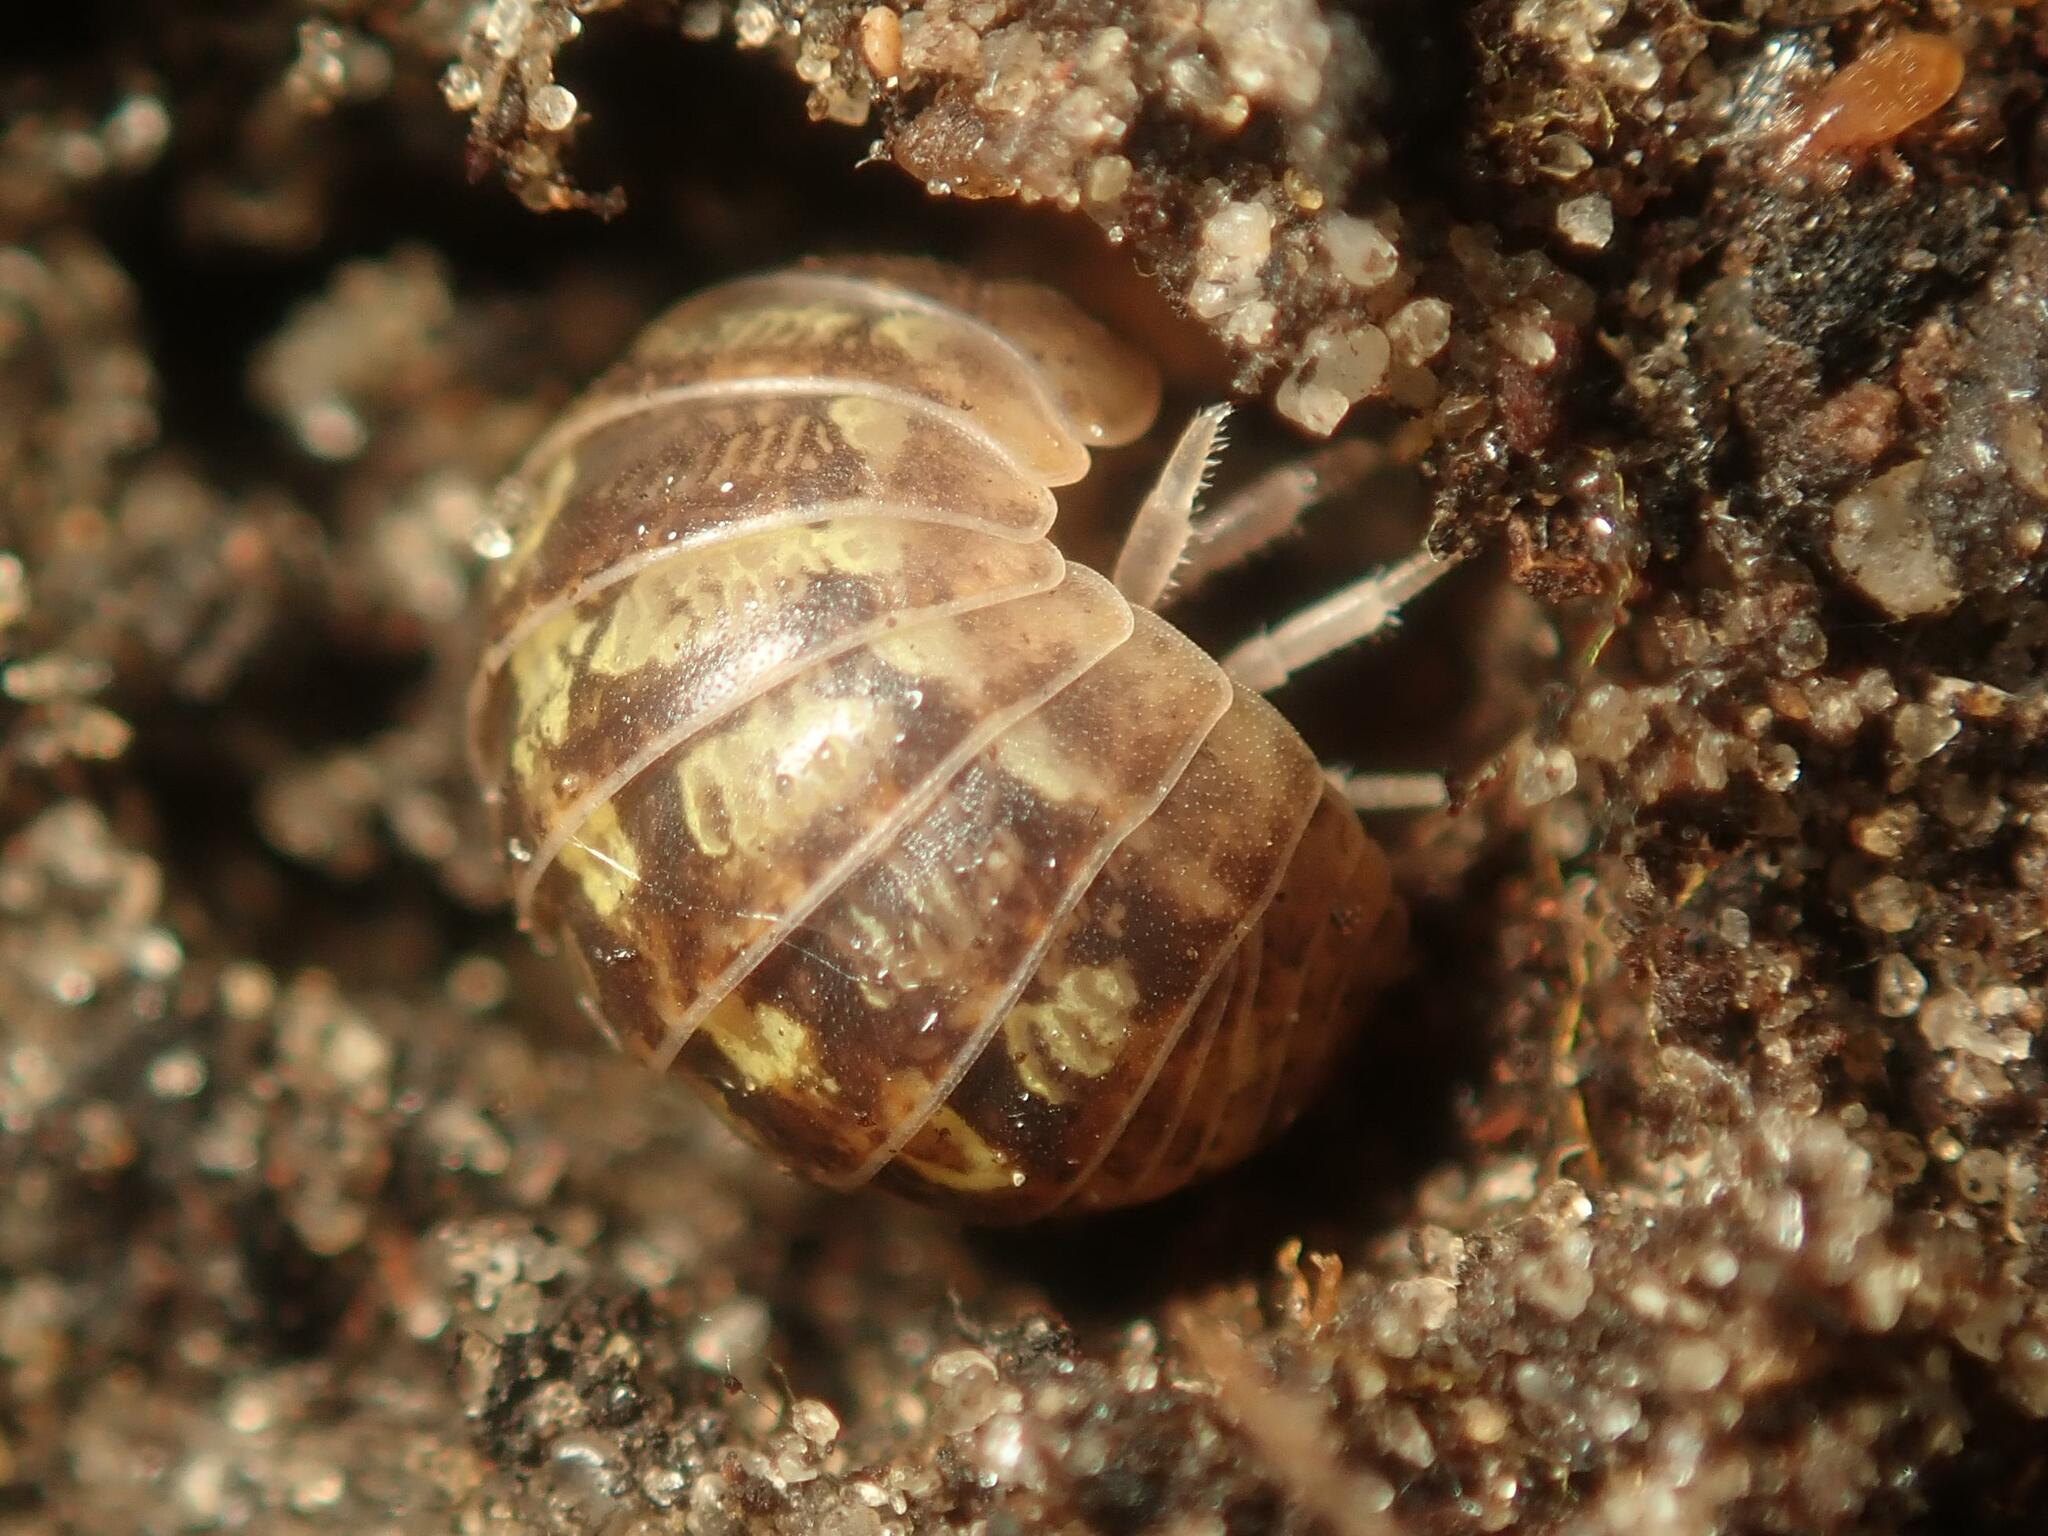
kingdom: Animalia
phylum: Arthropoda
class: Malacostraca
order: Isopoda
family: Armadillidiidae
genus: Armadillidium
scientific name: Armadillidium vulgare
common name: Common pill woodlouse
